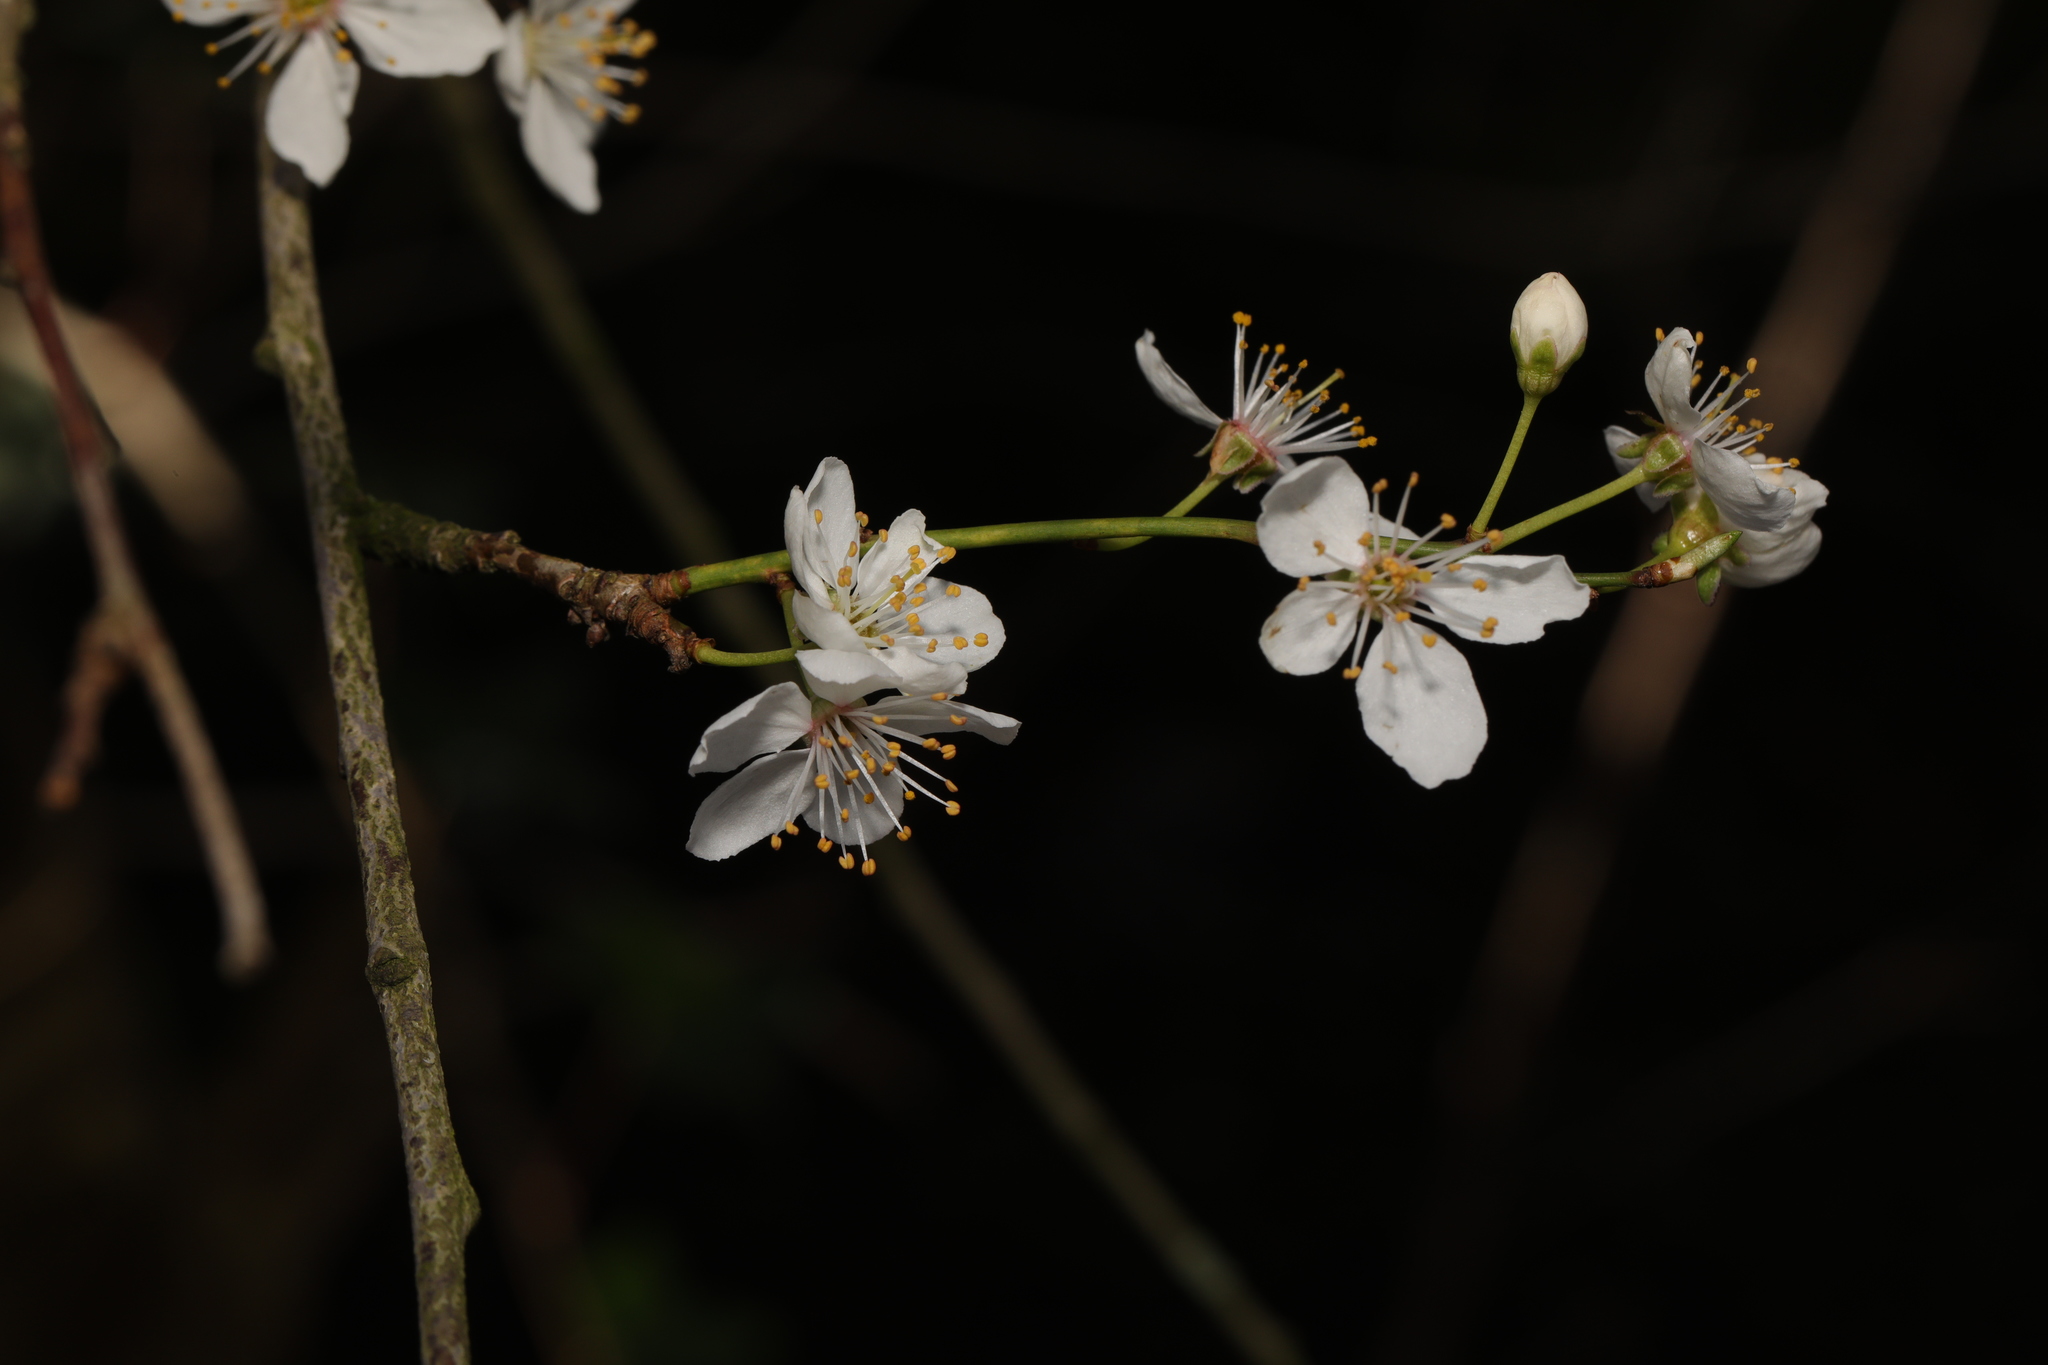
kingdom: Plantae
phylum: Tracheophyta
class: Magnoliopsida
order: Rosales
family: Rosaceae
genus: Prunus
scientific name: Prunus cerasifera
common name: Cherry plum
